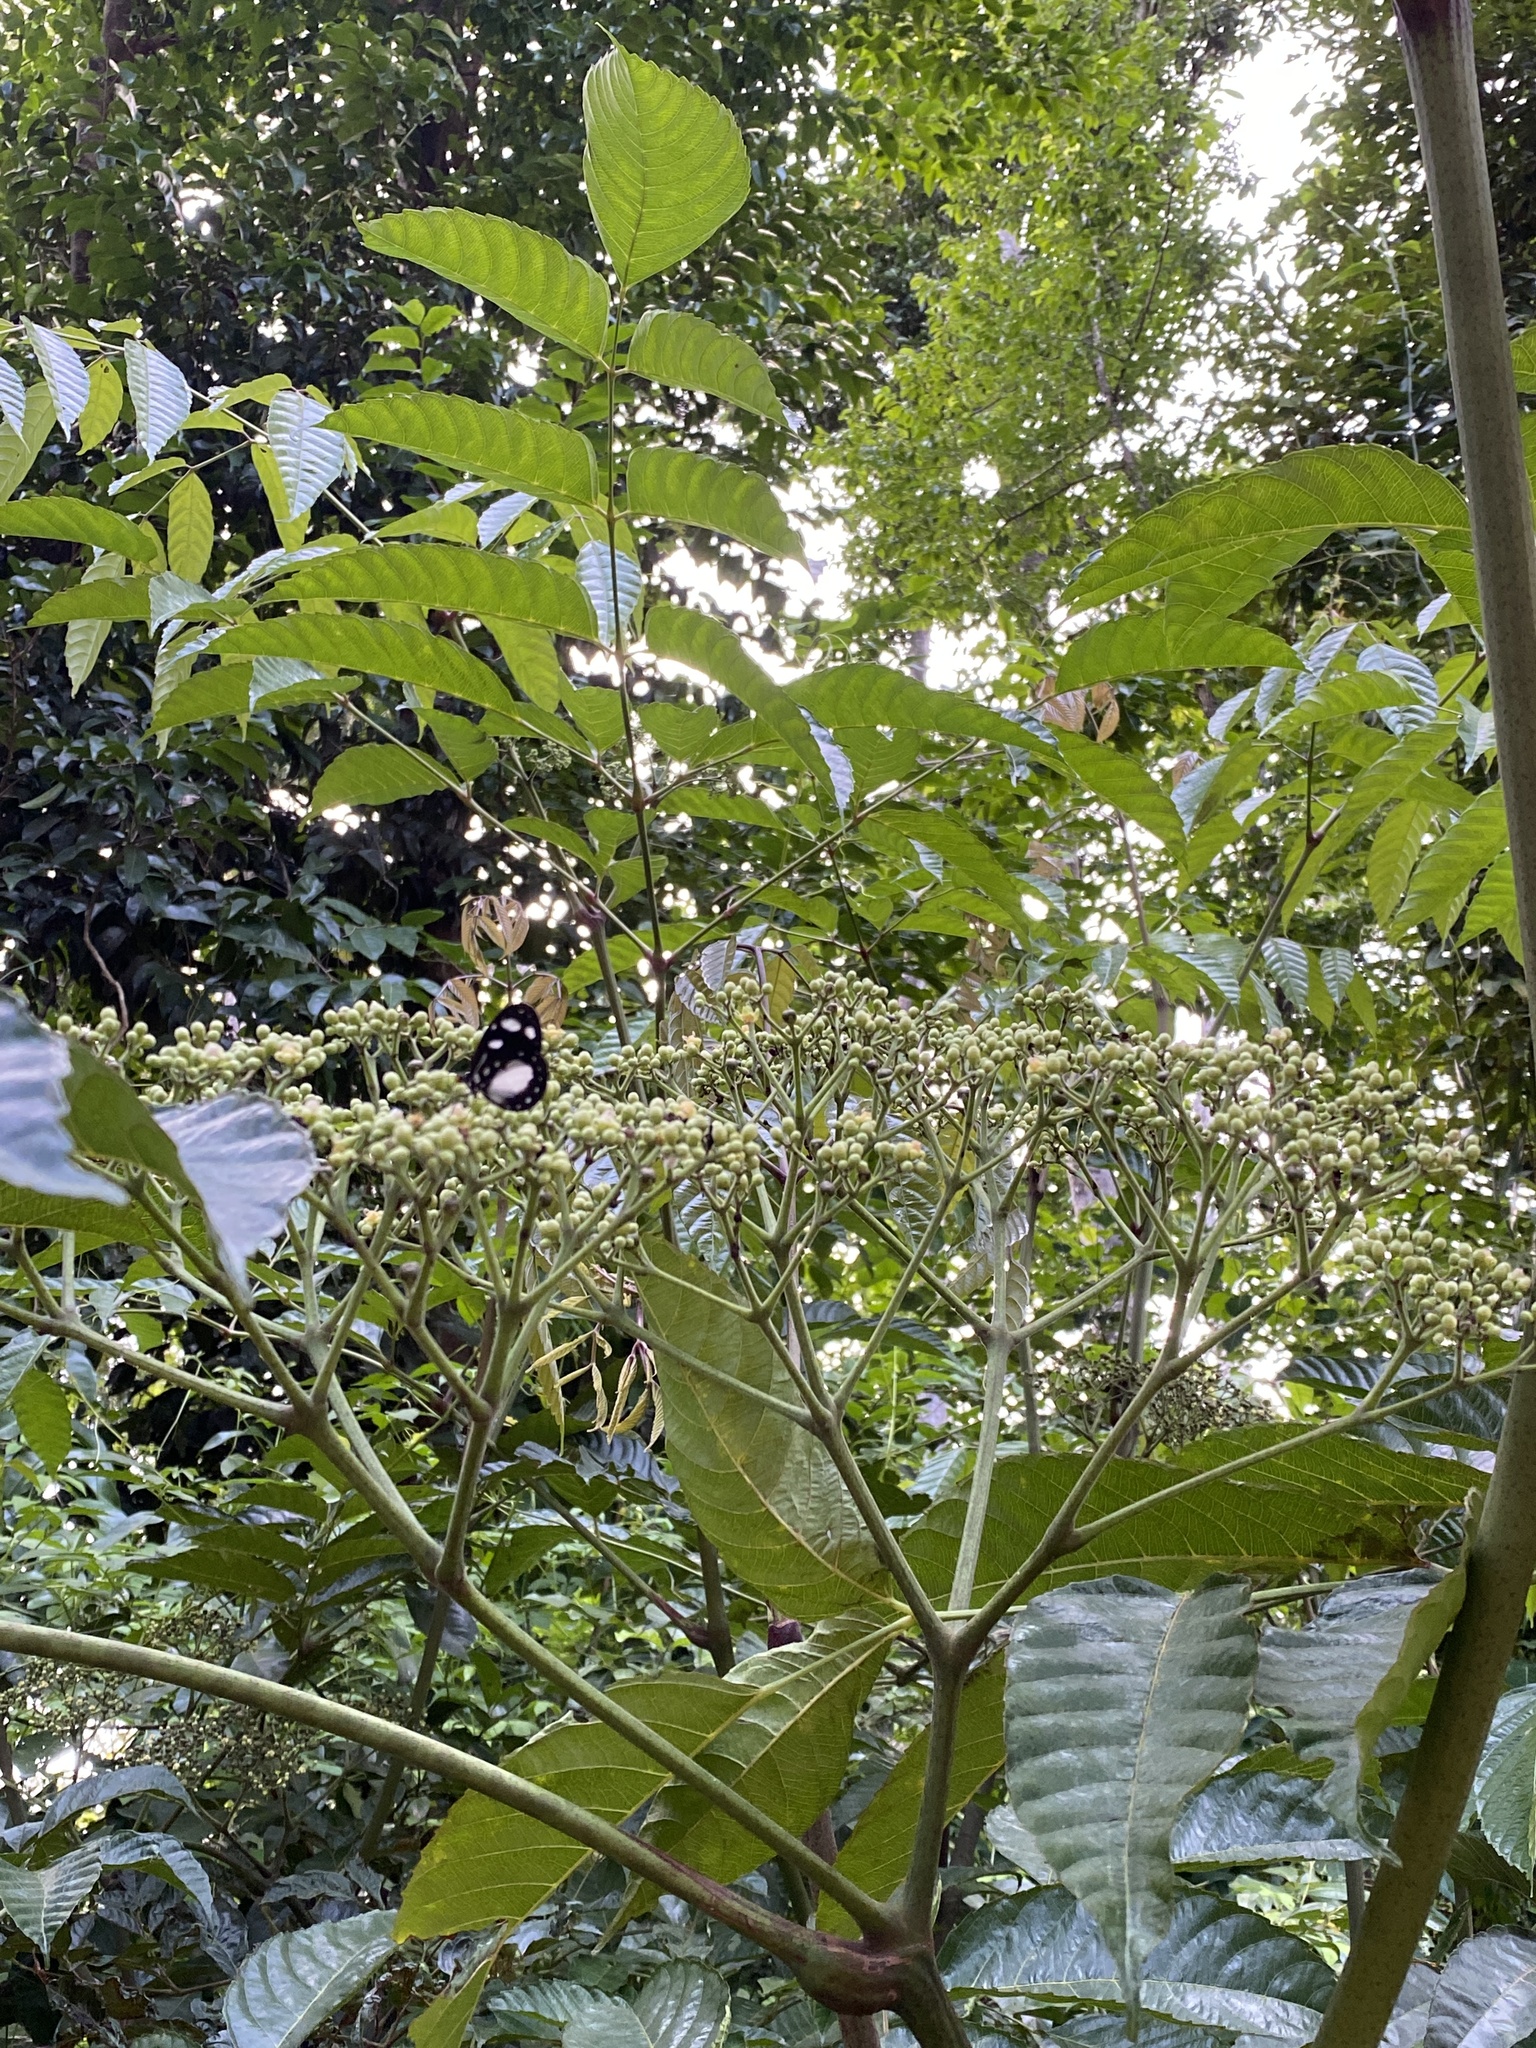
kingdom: Plantae
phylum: Tracheophyta
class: Magnoliopsida
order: Vitales
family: Vitaceae
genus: Leea
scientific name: Leea nova-guineensis
